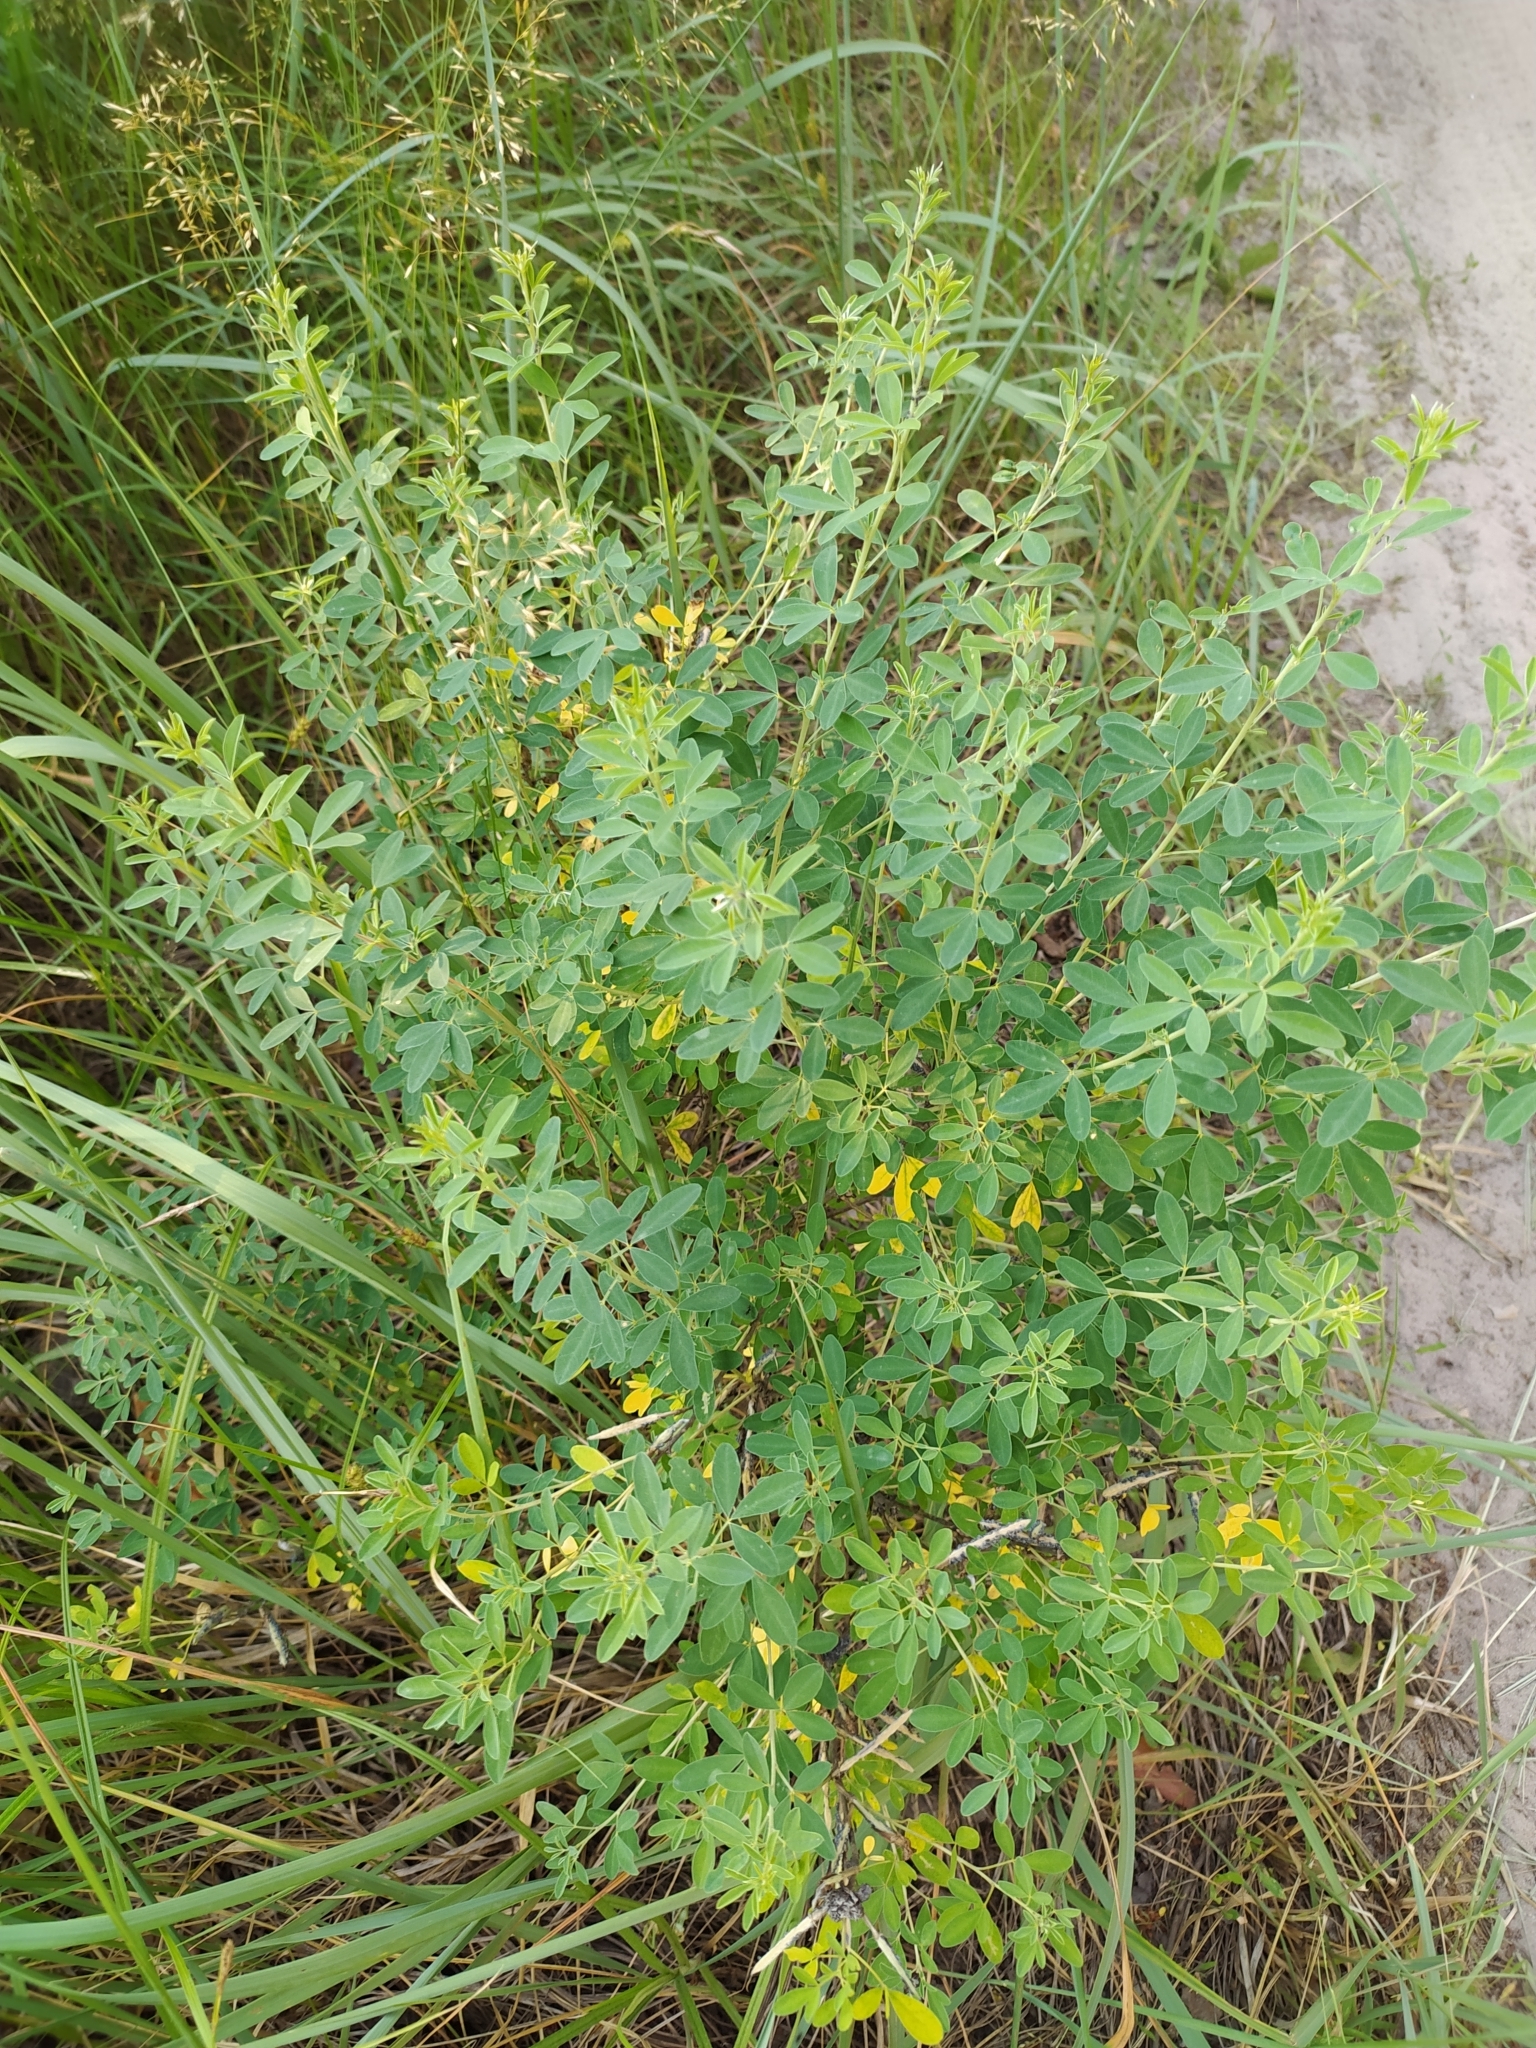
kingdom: Plantae
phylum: Tracheophyta
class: Magnoliopsida
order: Fabales
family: Fabaceae
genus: Chamaecytisus
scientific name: Chamaecytisus ruthenicus
